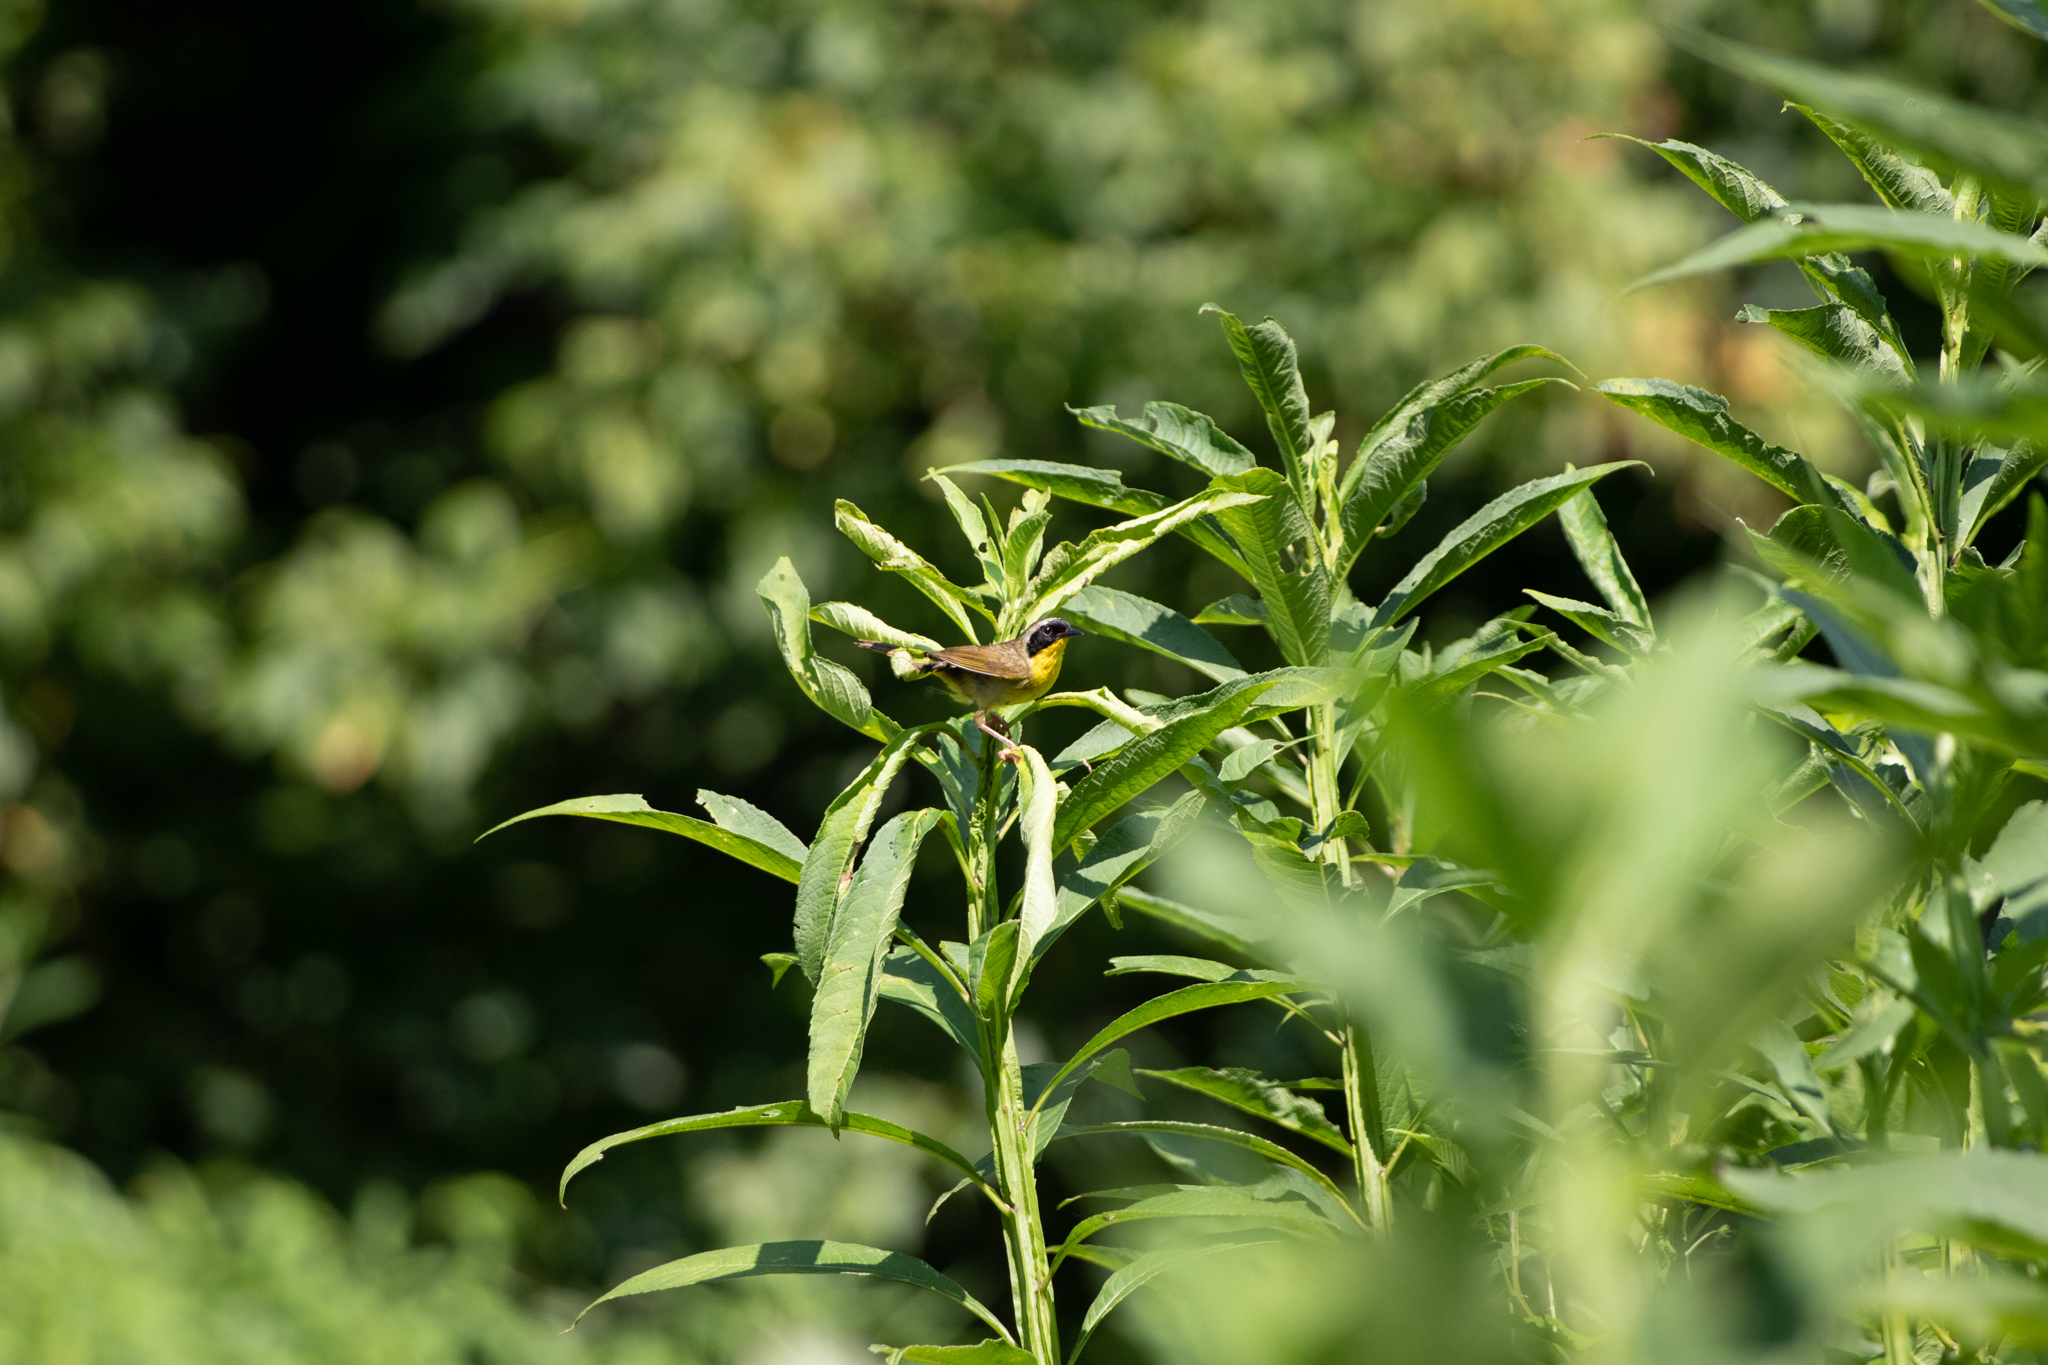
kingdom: Animalia
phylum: Chordata
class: Aves
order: Passeriformes
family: Parulidae
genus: Geothlypis
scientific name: Geothlypis trichas
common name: Common yellowthroat
